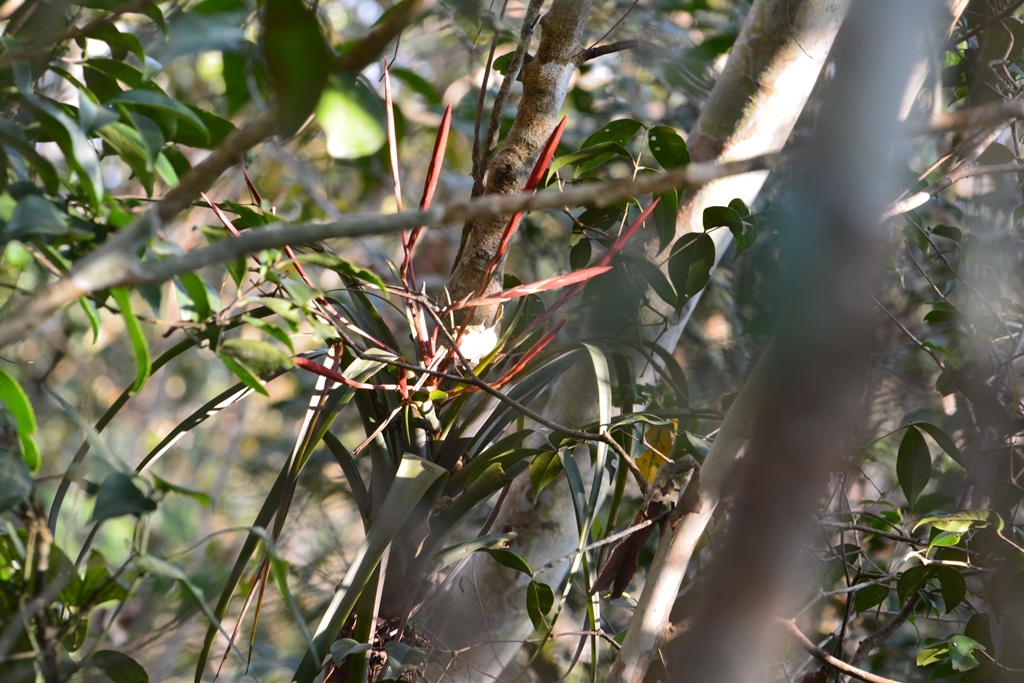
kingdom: Plantae
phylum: Tracheophyta
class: Liliopsida
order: Poales
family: Bromeliaceae
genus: Tillandsia
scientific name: Tillandsia flabellata
